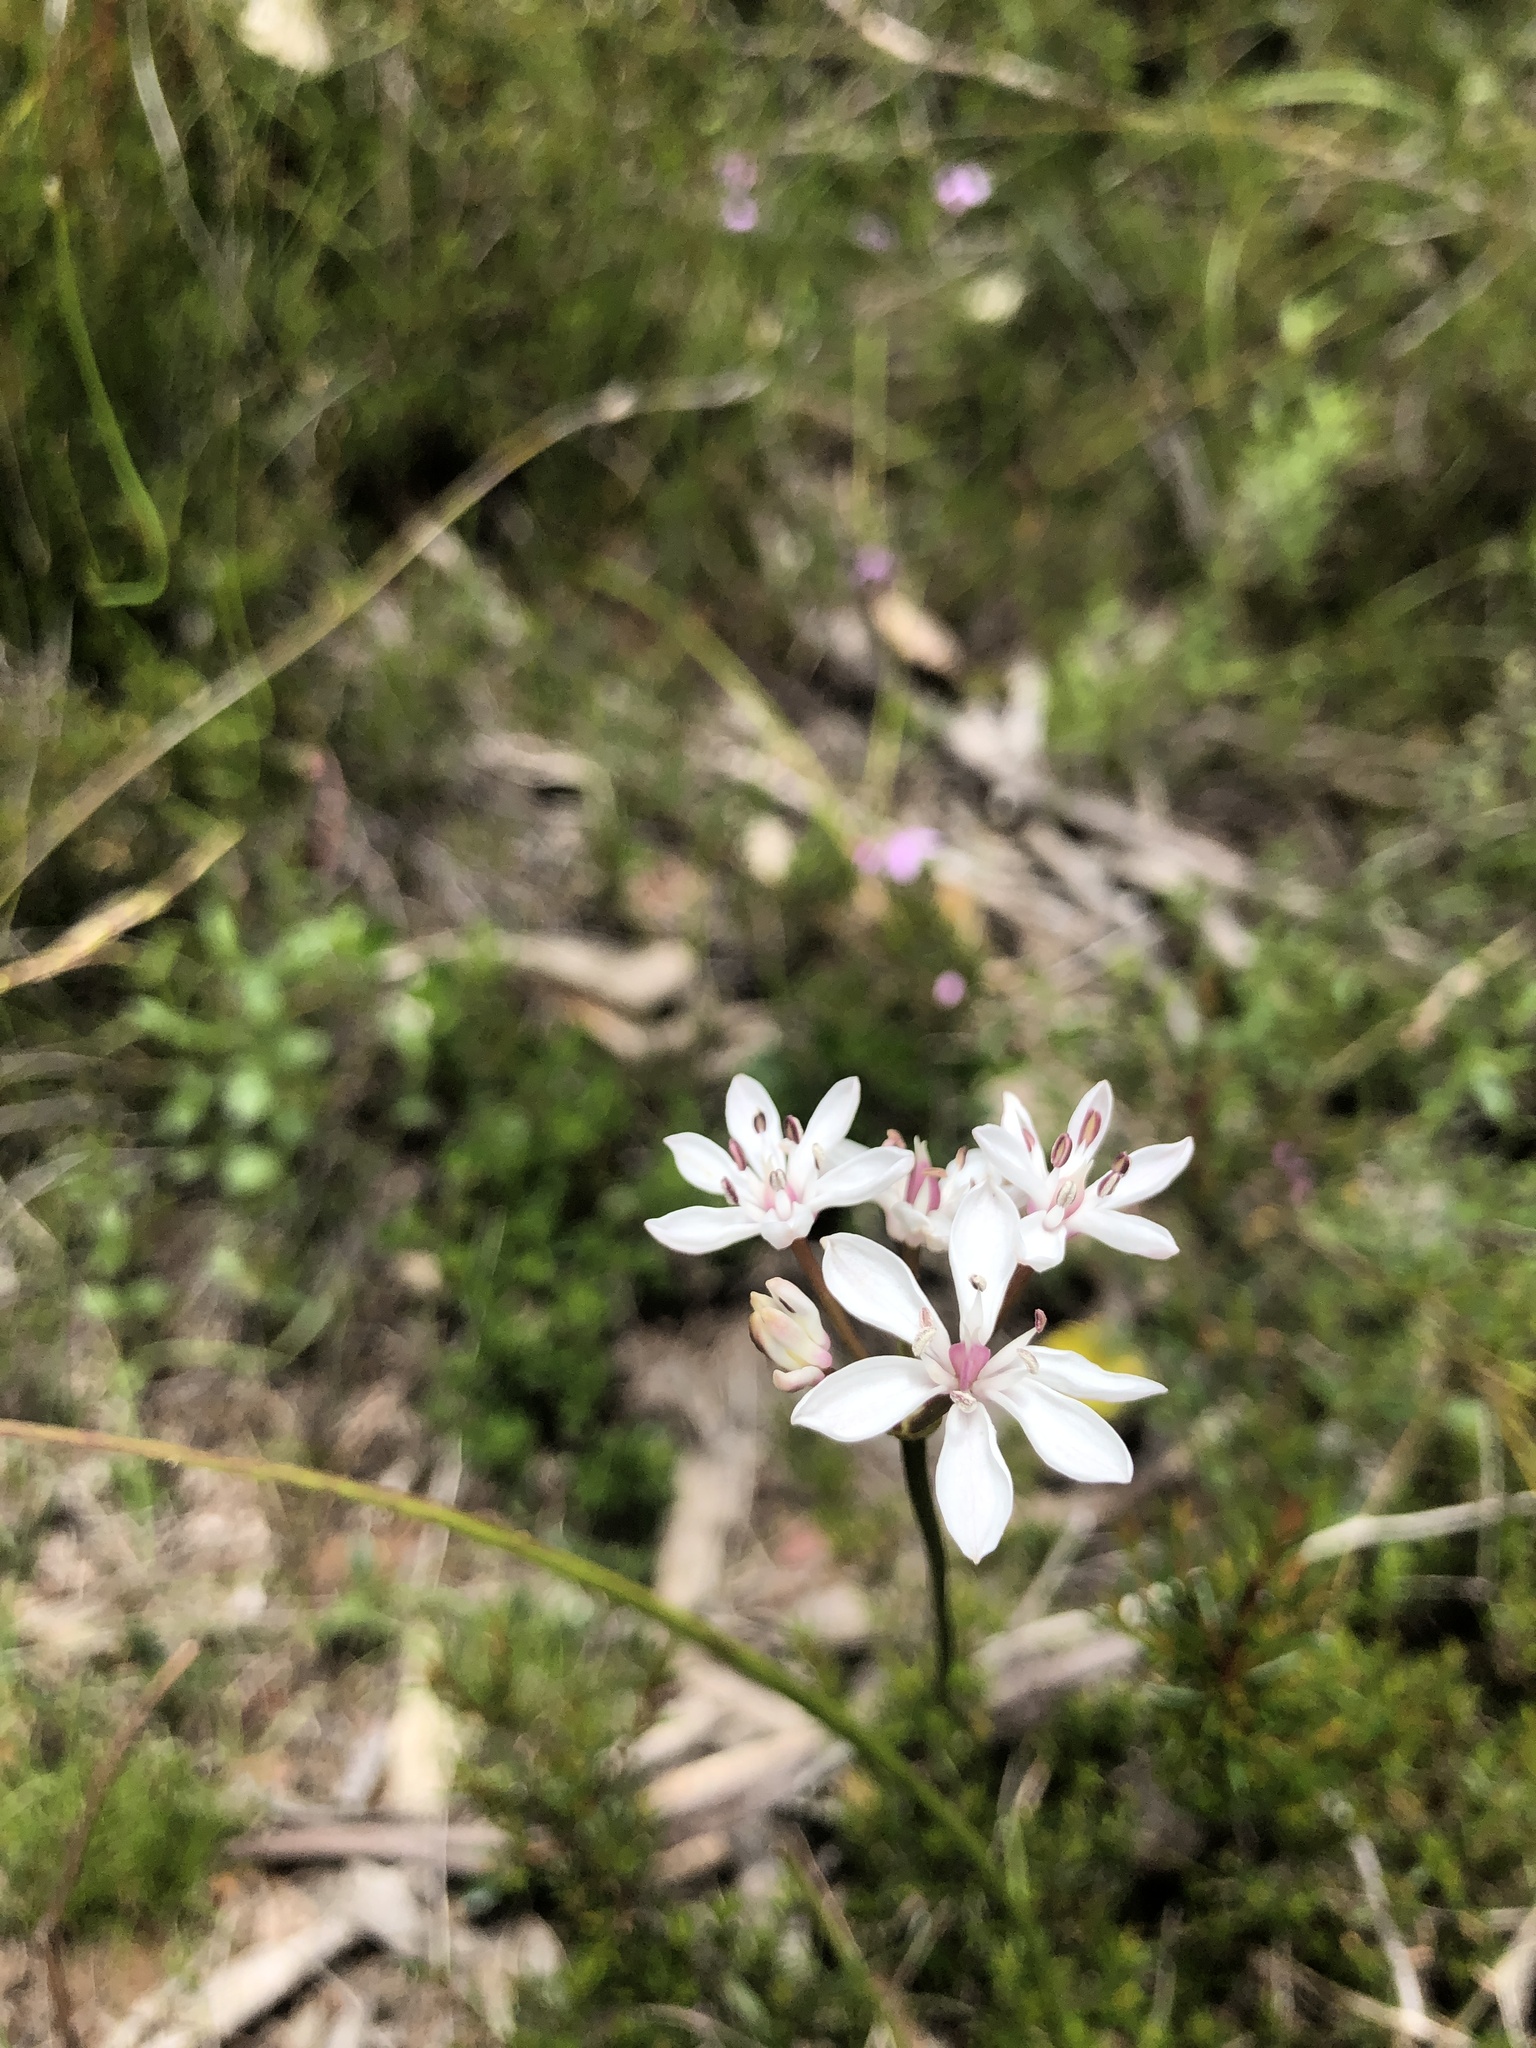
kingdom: Plantae
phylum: Tracheophyta
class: Liliopsida
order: Liliales
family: Colchicaceae
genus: Burchardia
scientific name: Burchardia umbellata
